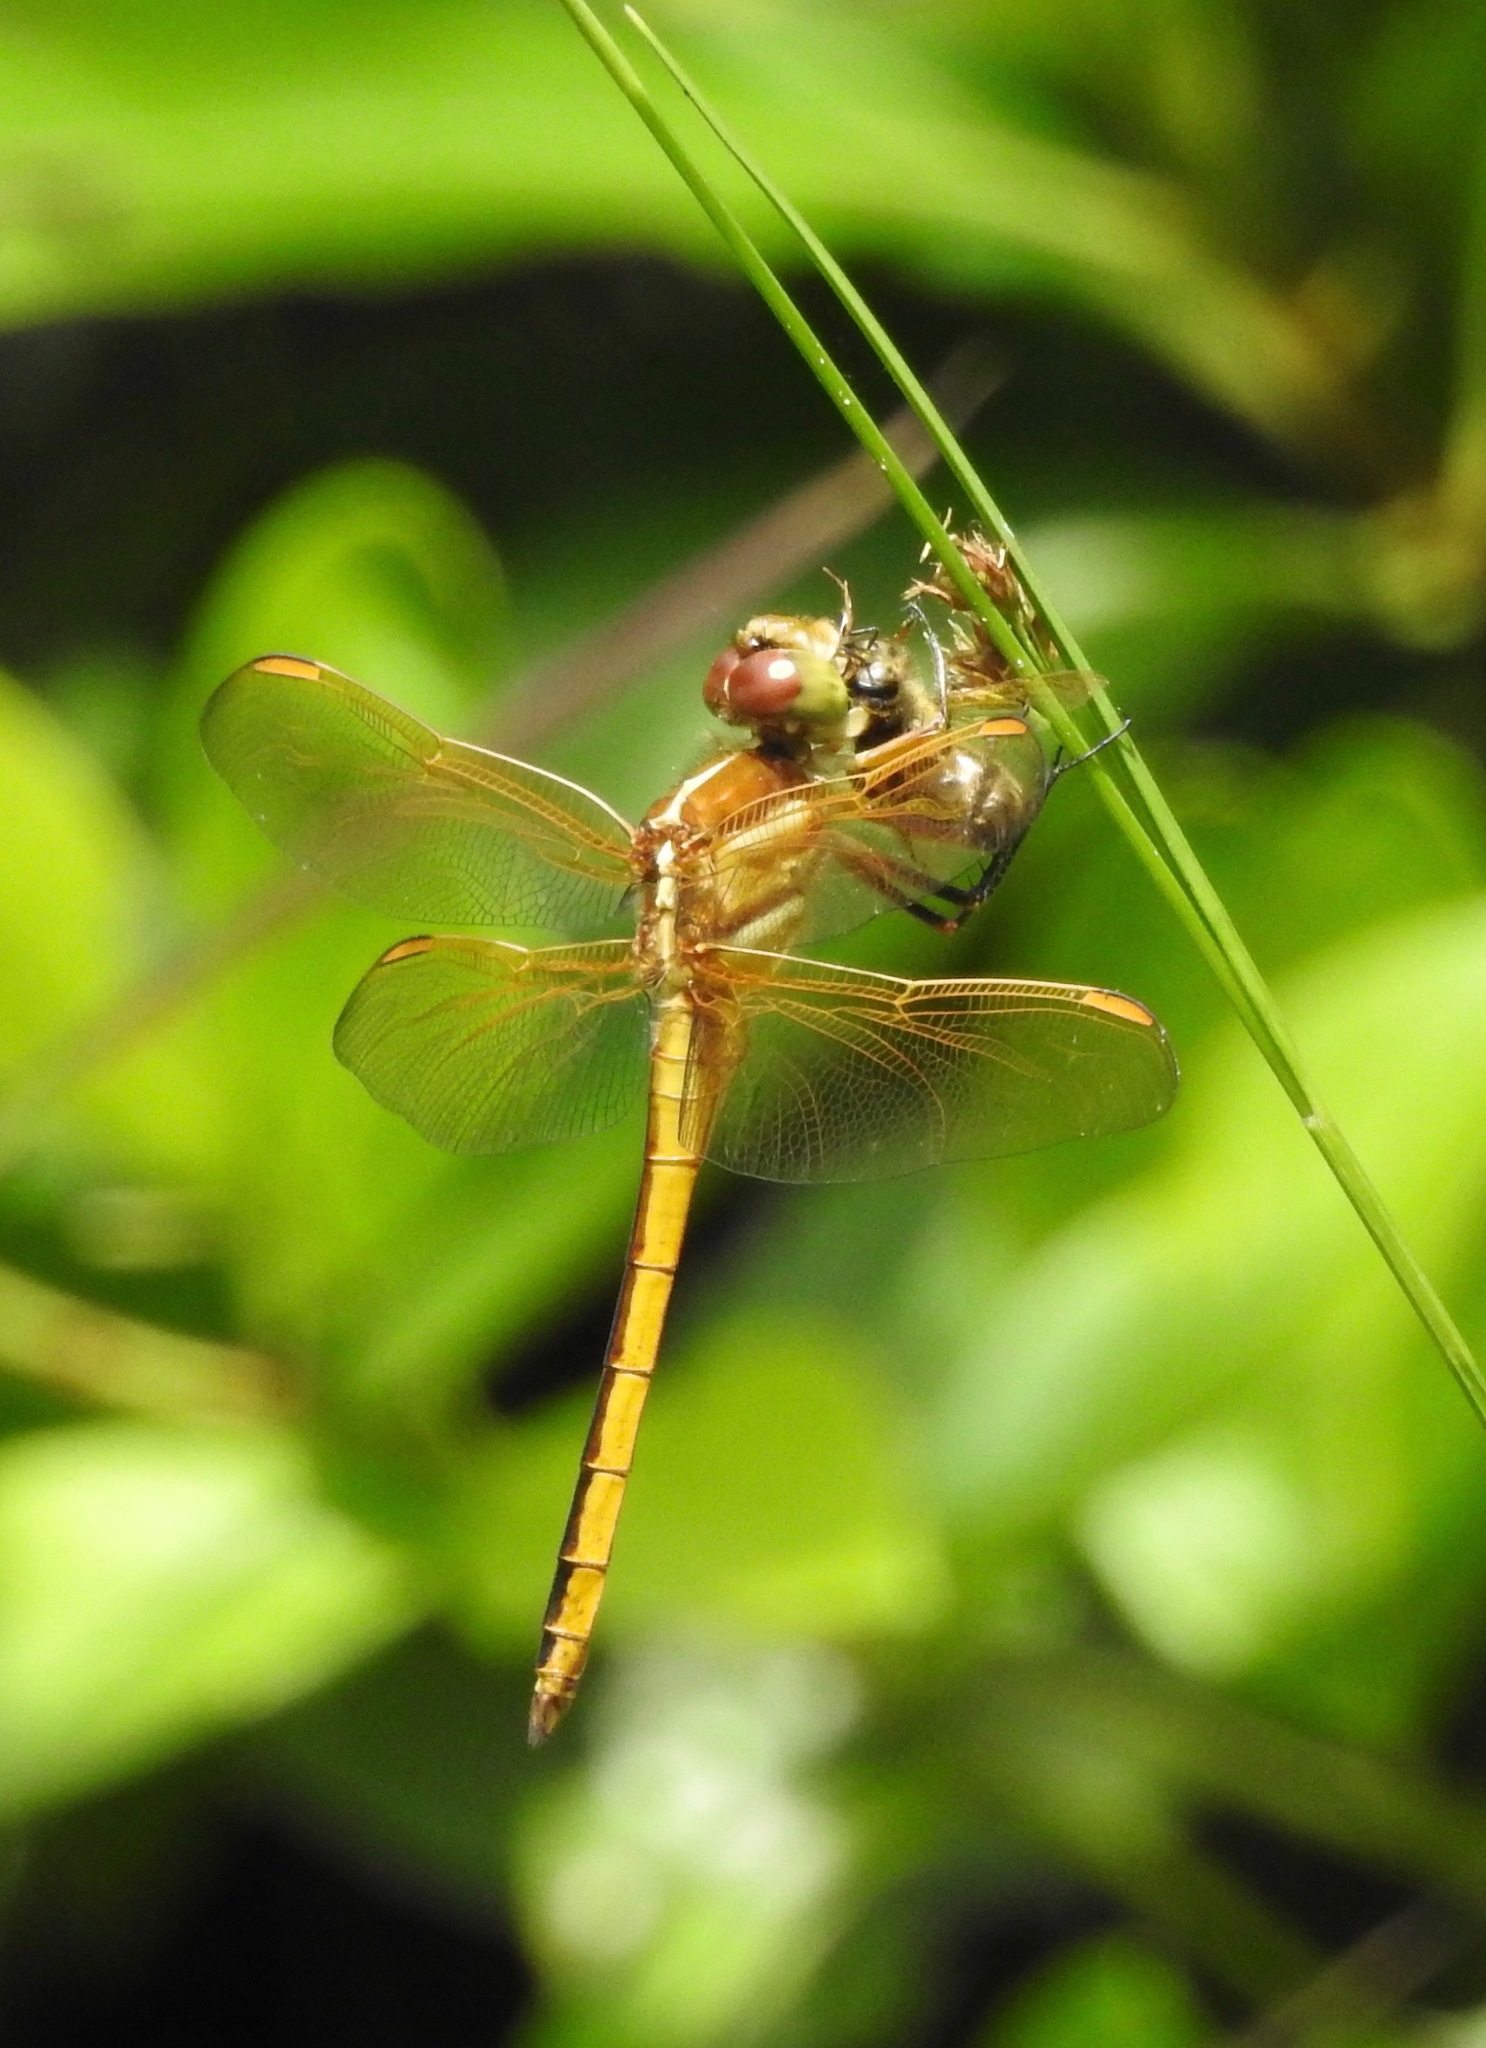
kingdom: Animalia
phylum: Arthropoda
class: Insecta
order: Odonata
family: Libellulidae
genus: Libellula
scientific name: Libellula auripennis
